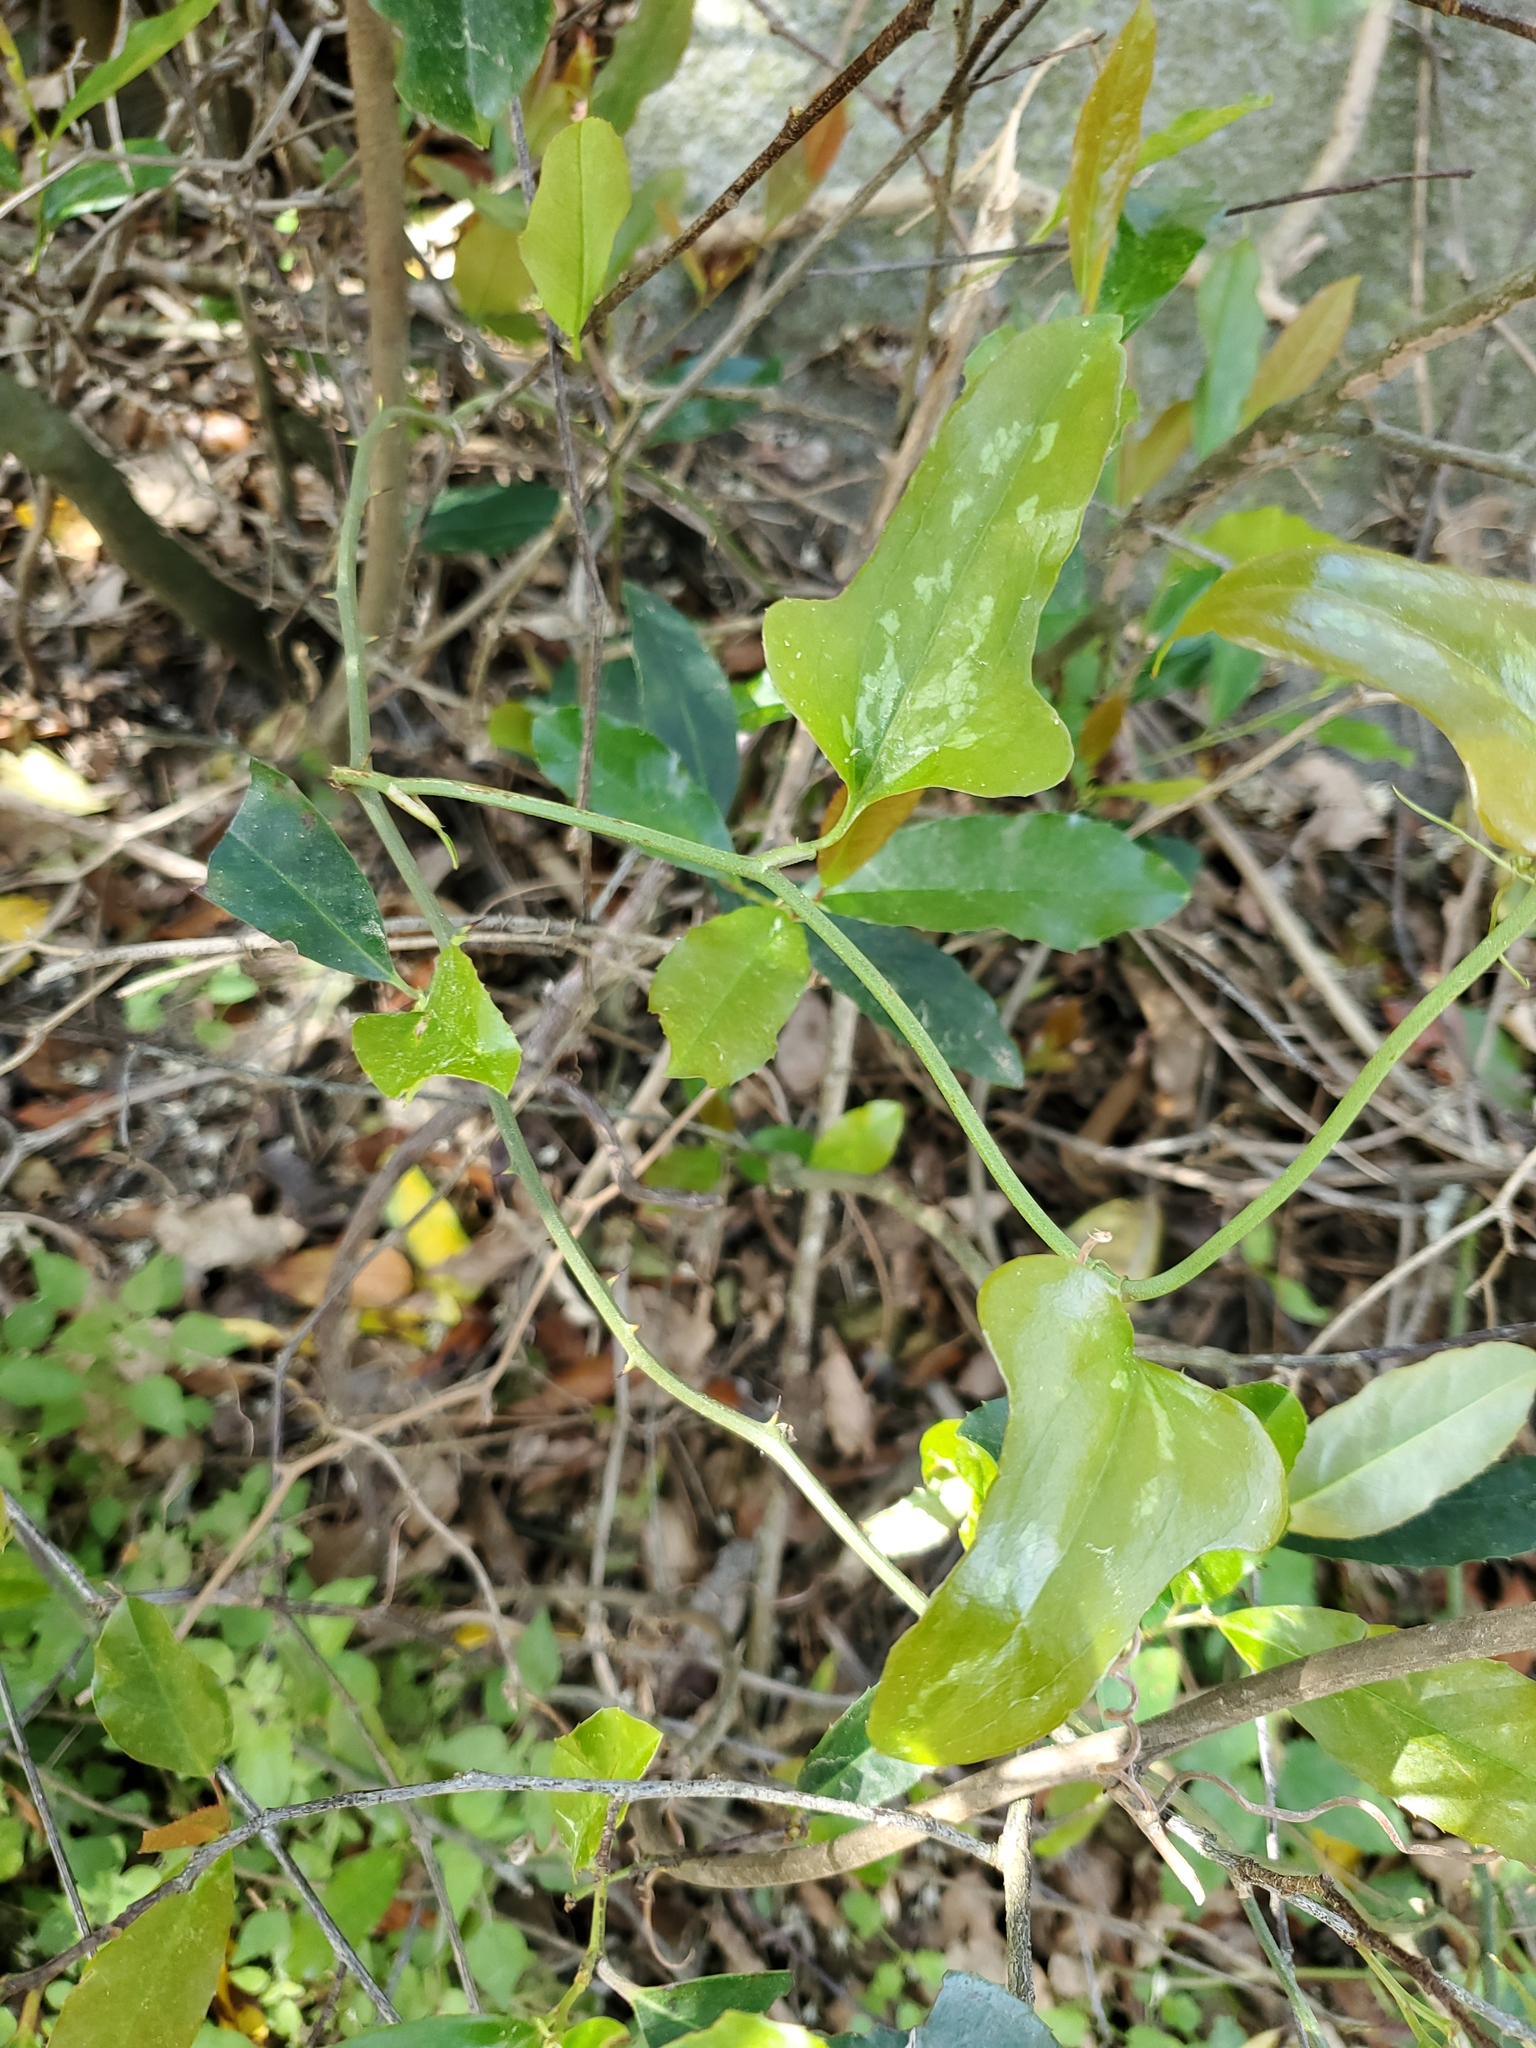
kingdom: Plantae
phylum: Tracheophyta
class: Liliopsida
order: Liliales
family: Smilacaceae
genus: Smilax
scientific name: Smilax bona-nox
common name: Catbrier
